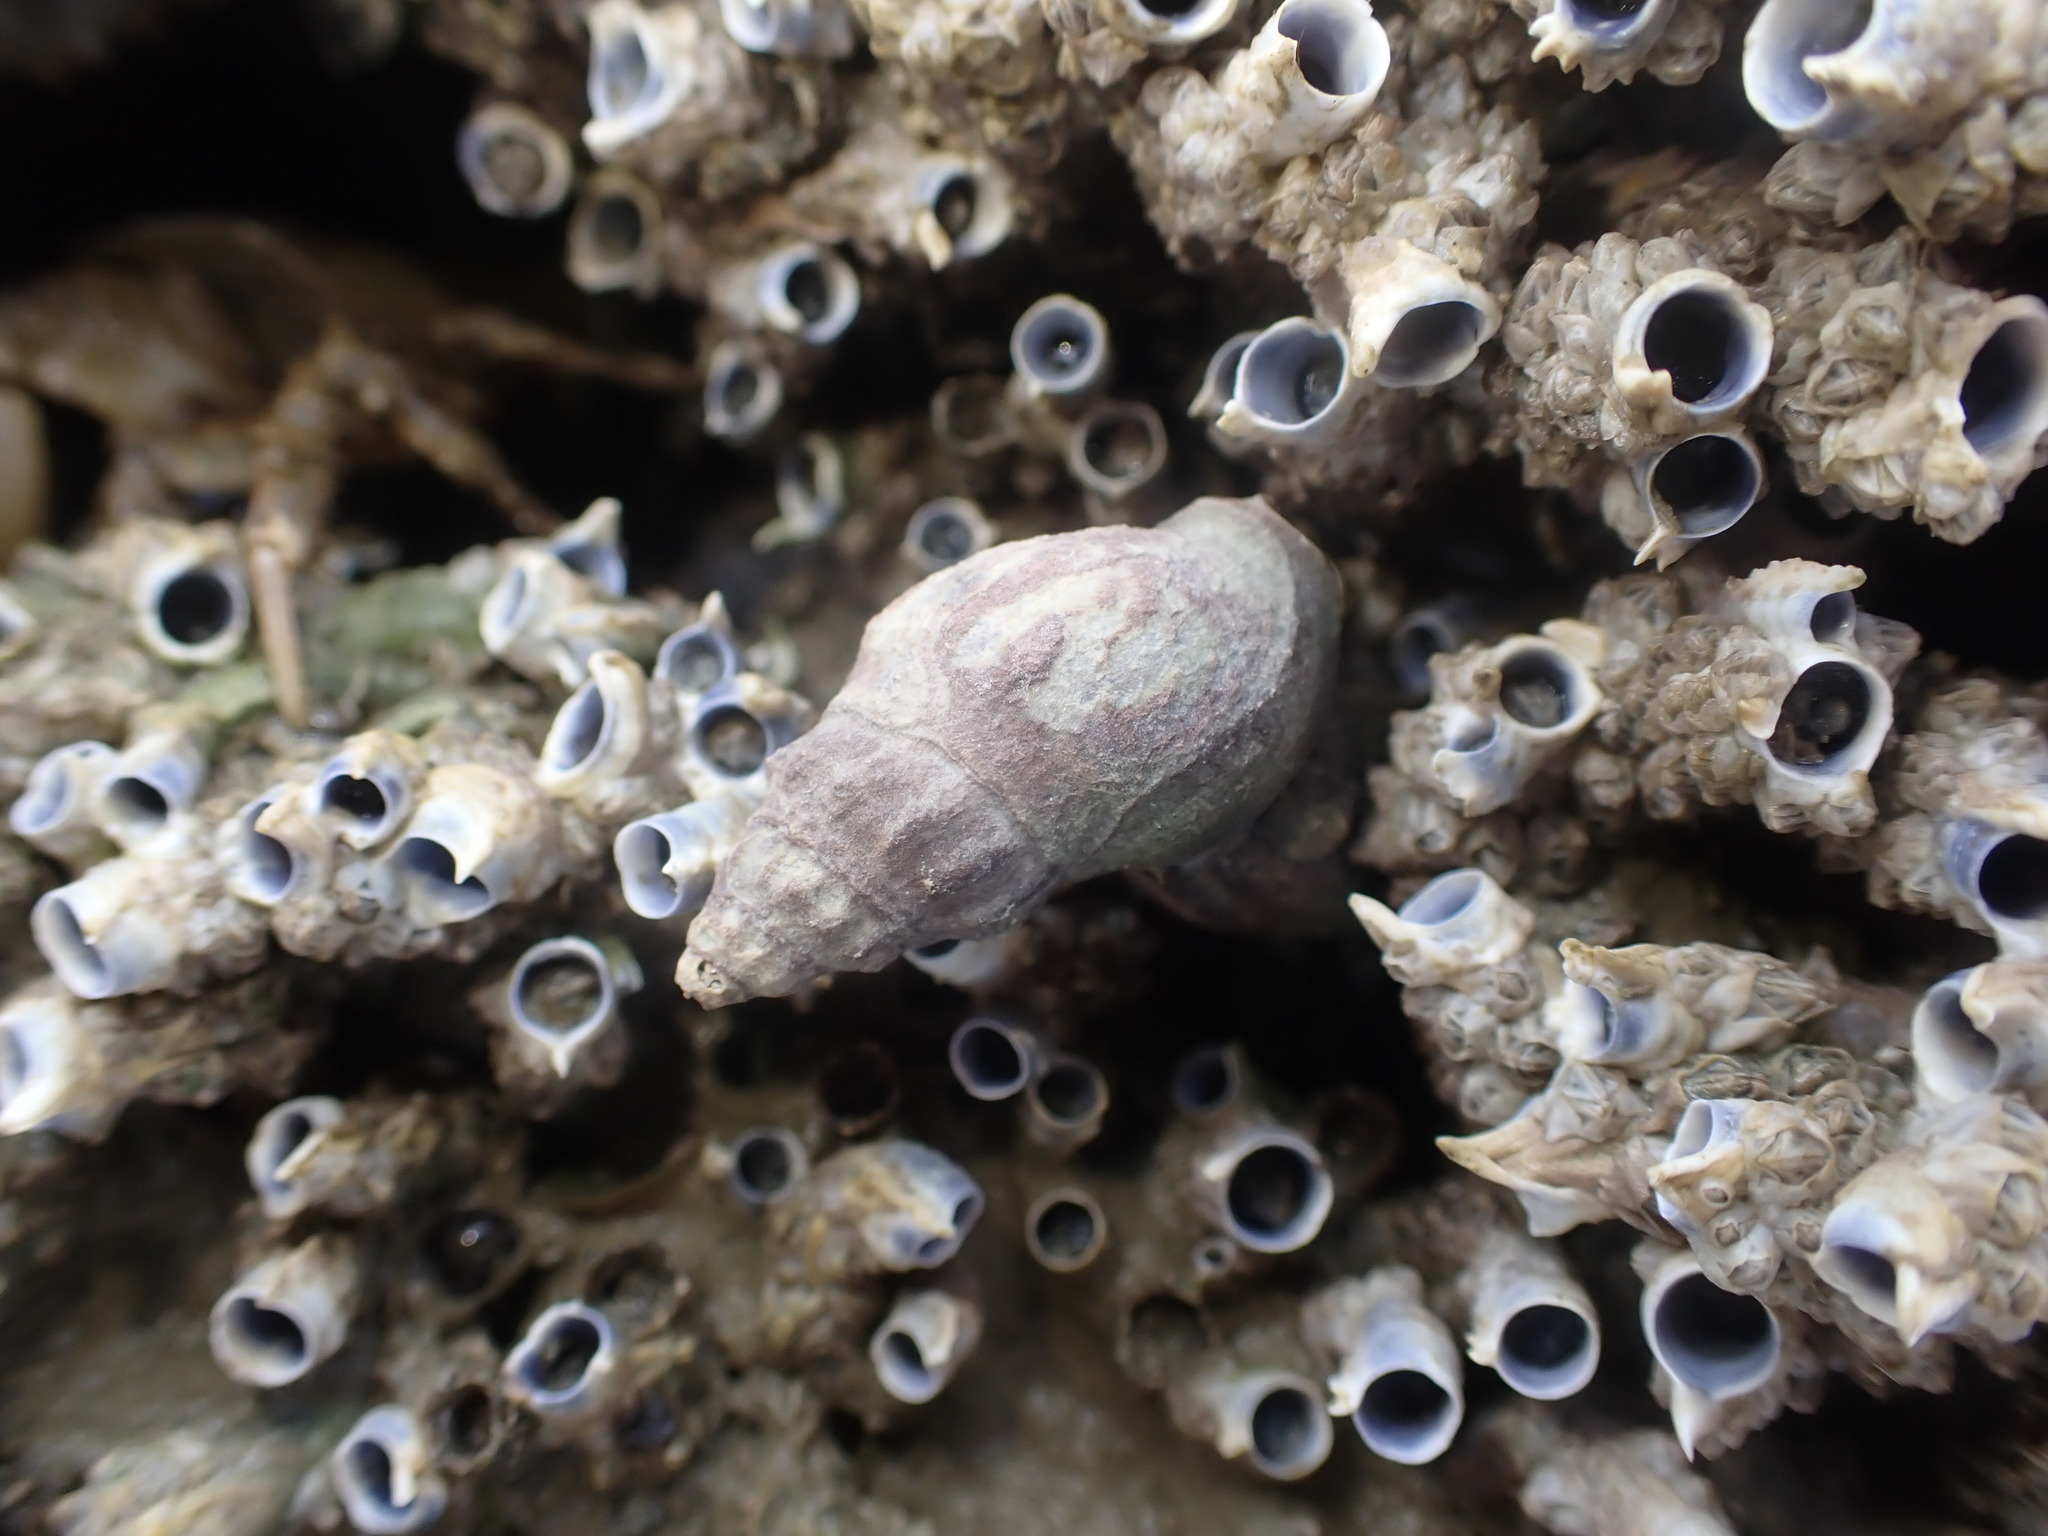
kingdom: Animalia
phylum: Mollusca
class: Gastropoda
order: Neogastropoda
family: Cominellidae
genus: Cominella
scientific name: Cominella glandiformis
